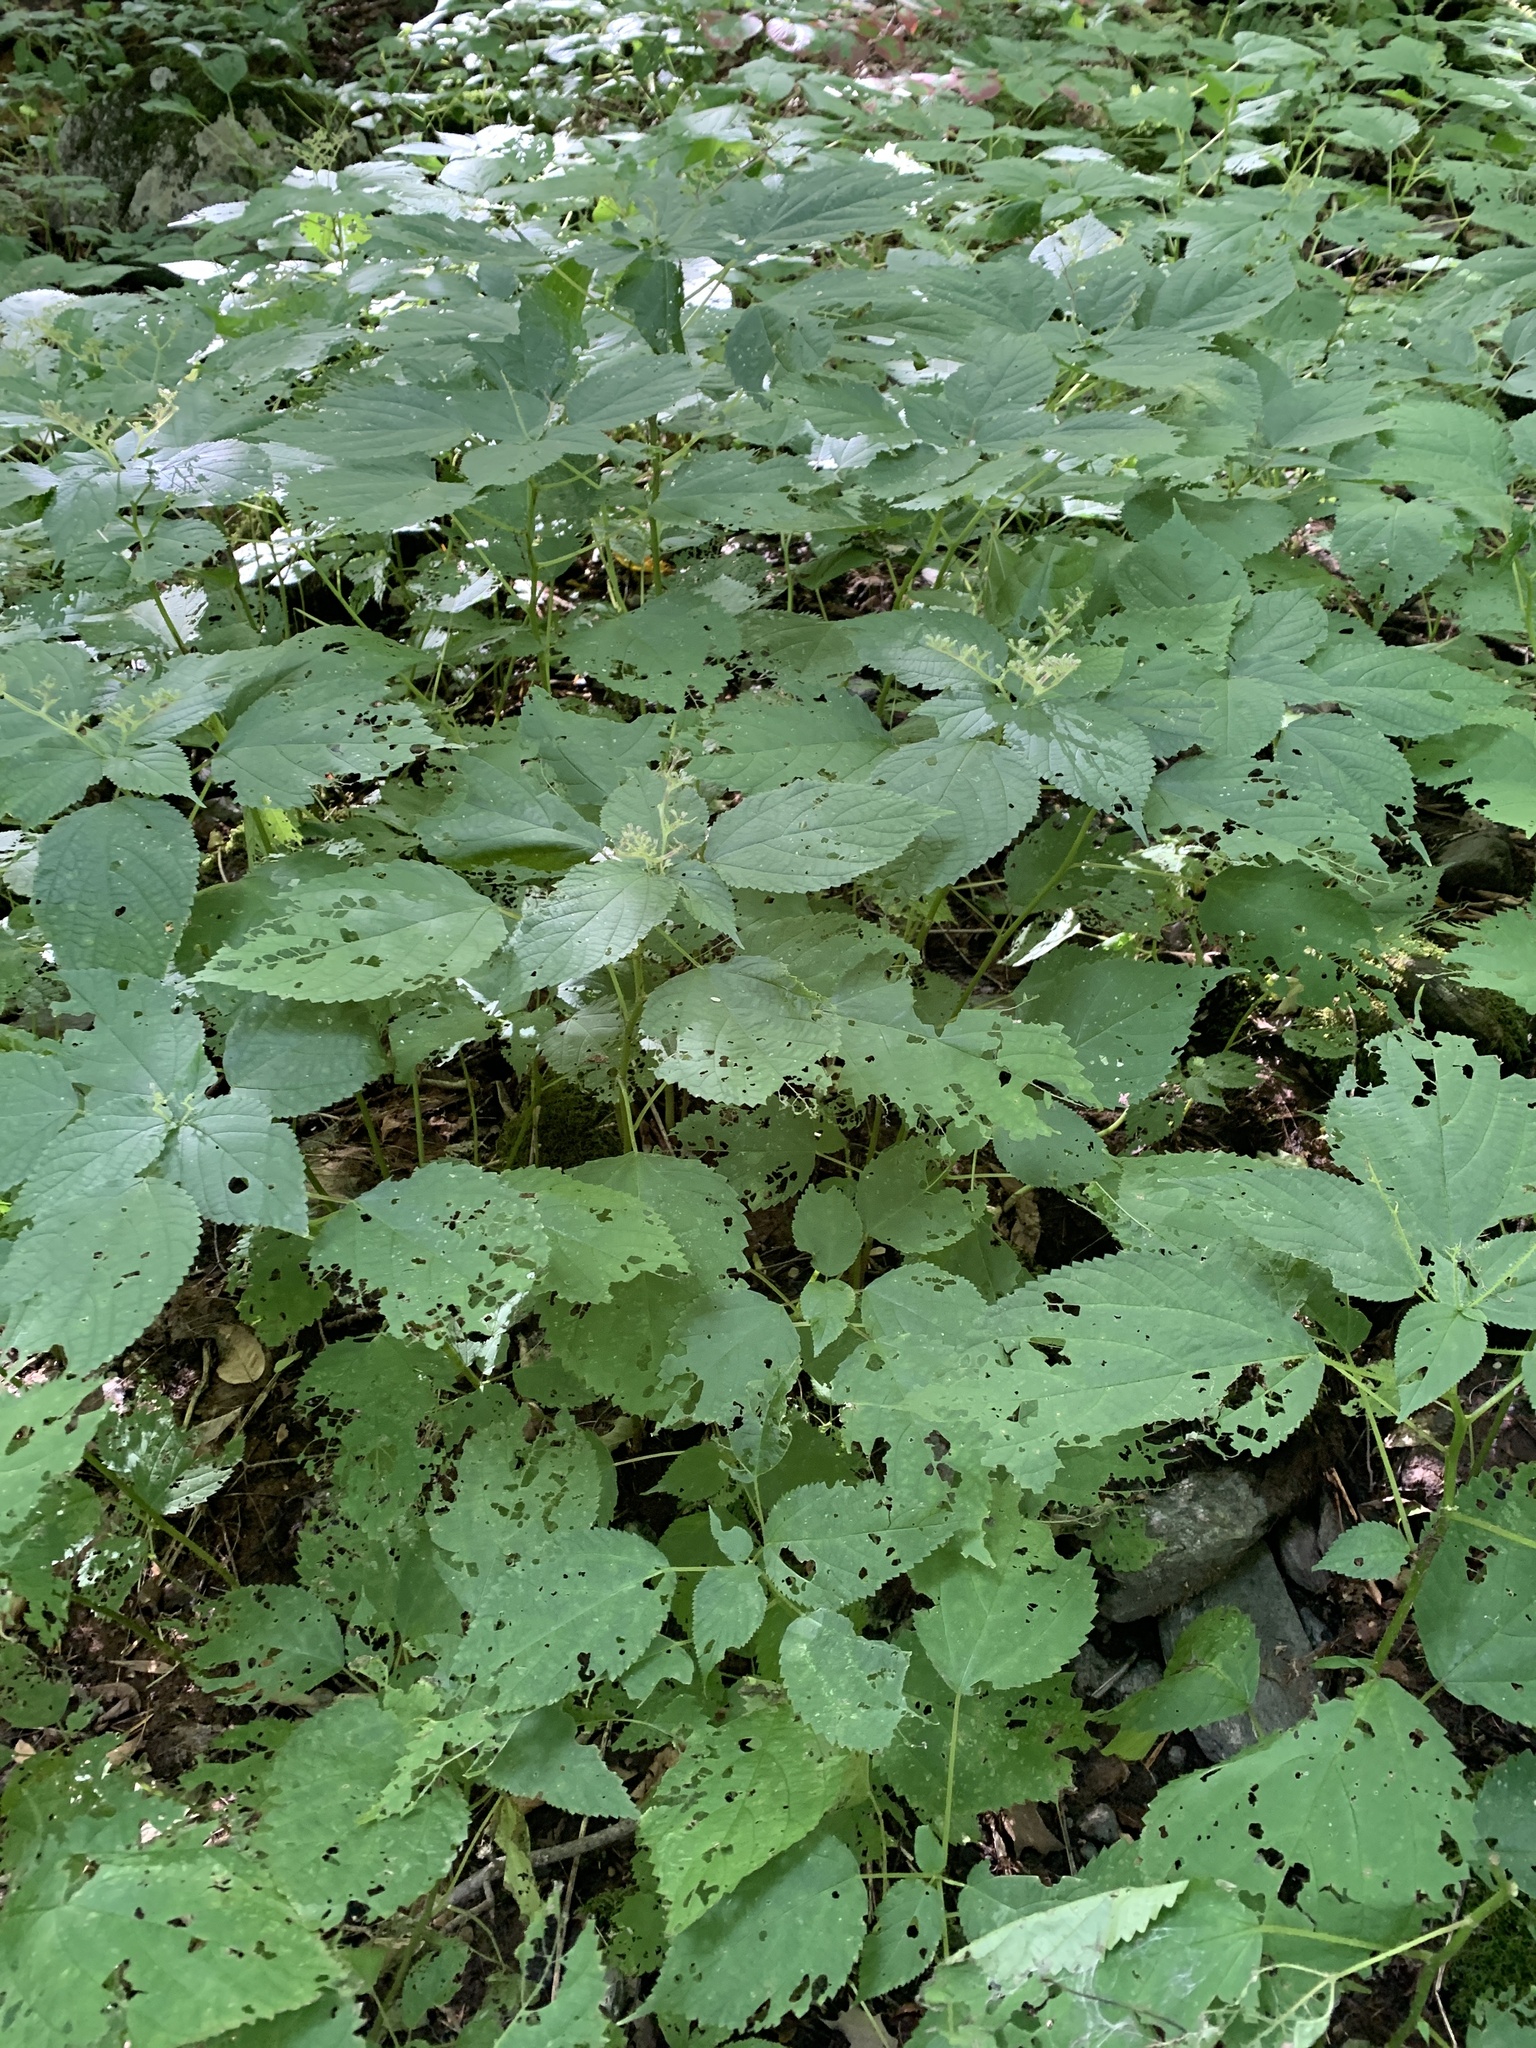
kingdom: Plantae
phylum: Tracheophyta
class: Magnoliopsida
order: Rosales
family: Urticaceae
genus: Laportea
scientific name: Laportea canadensis
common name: Canada nettle
